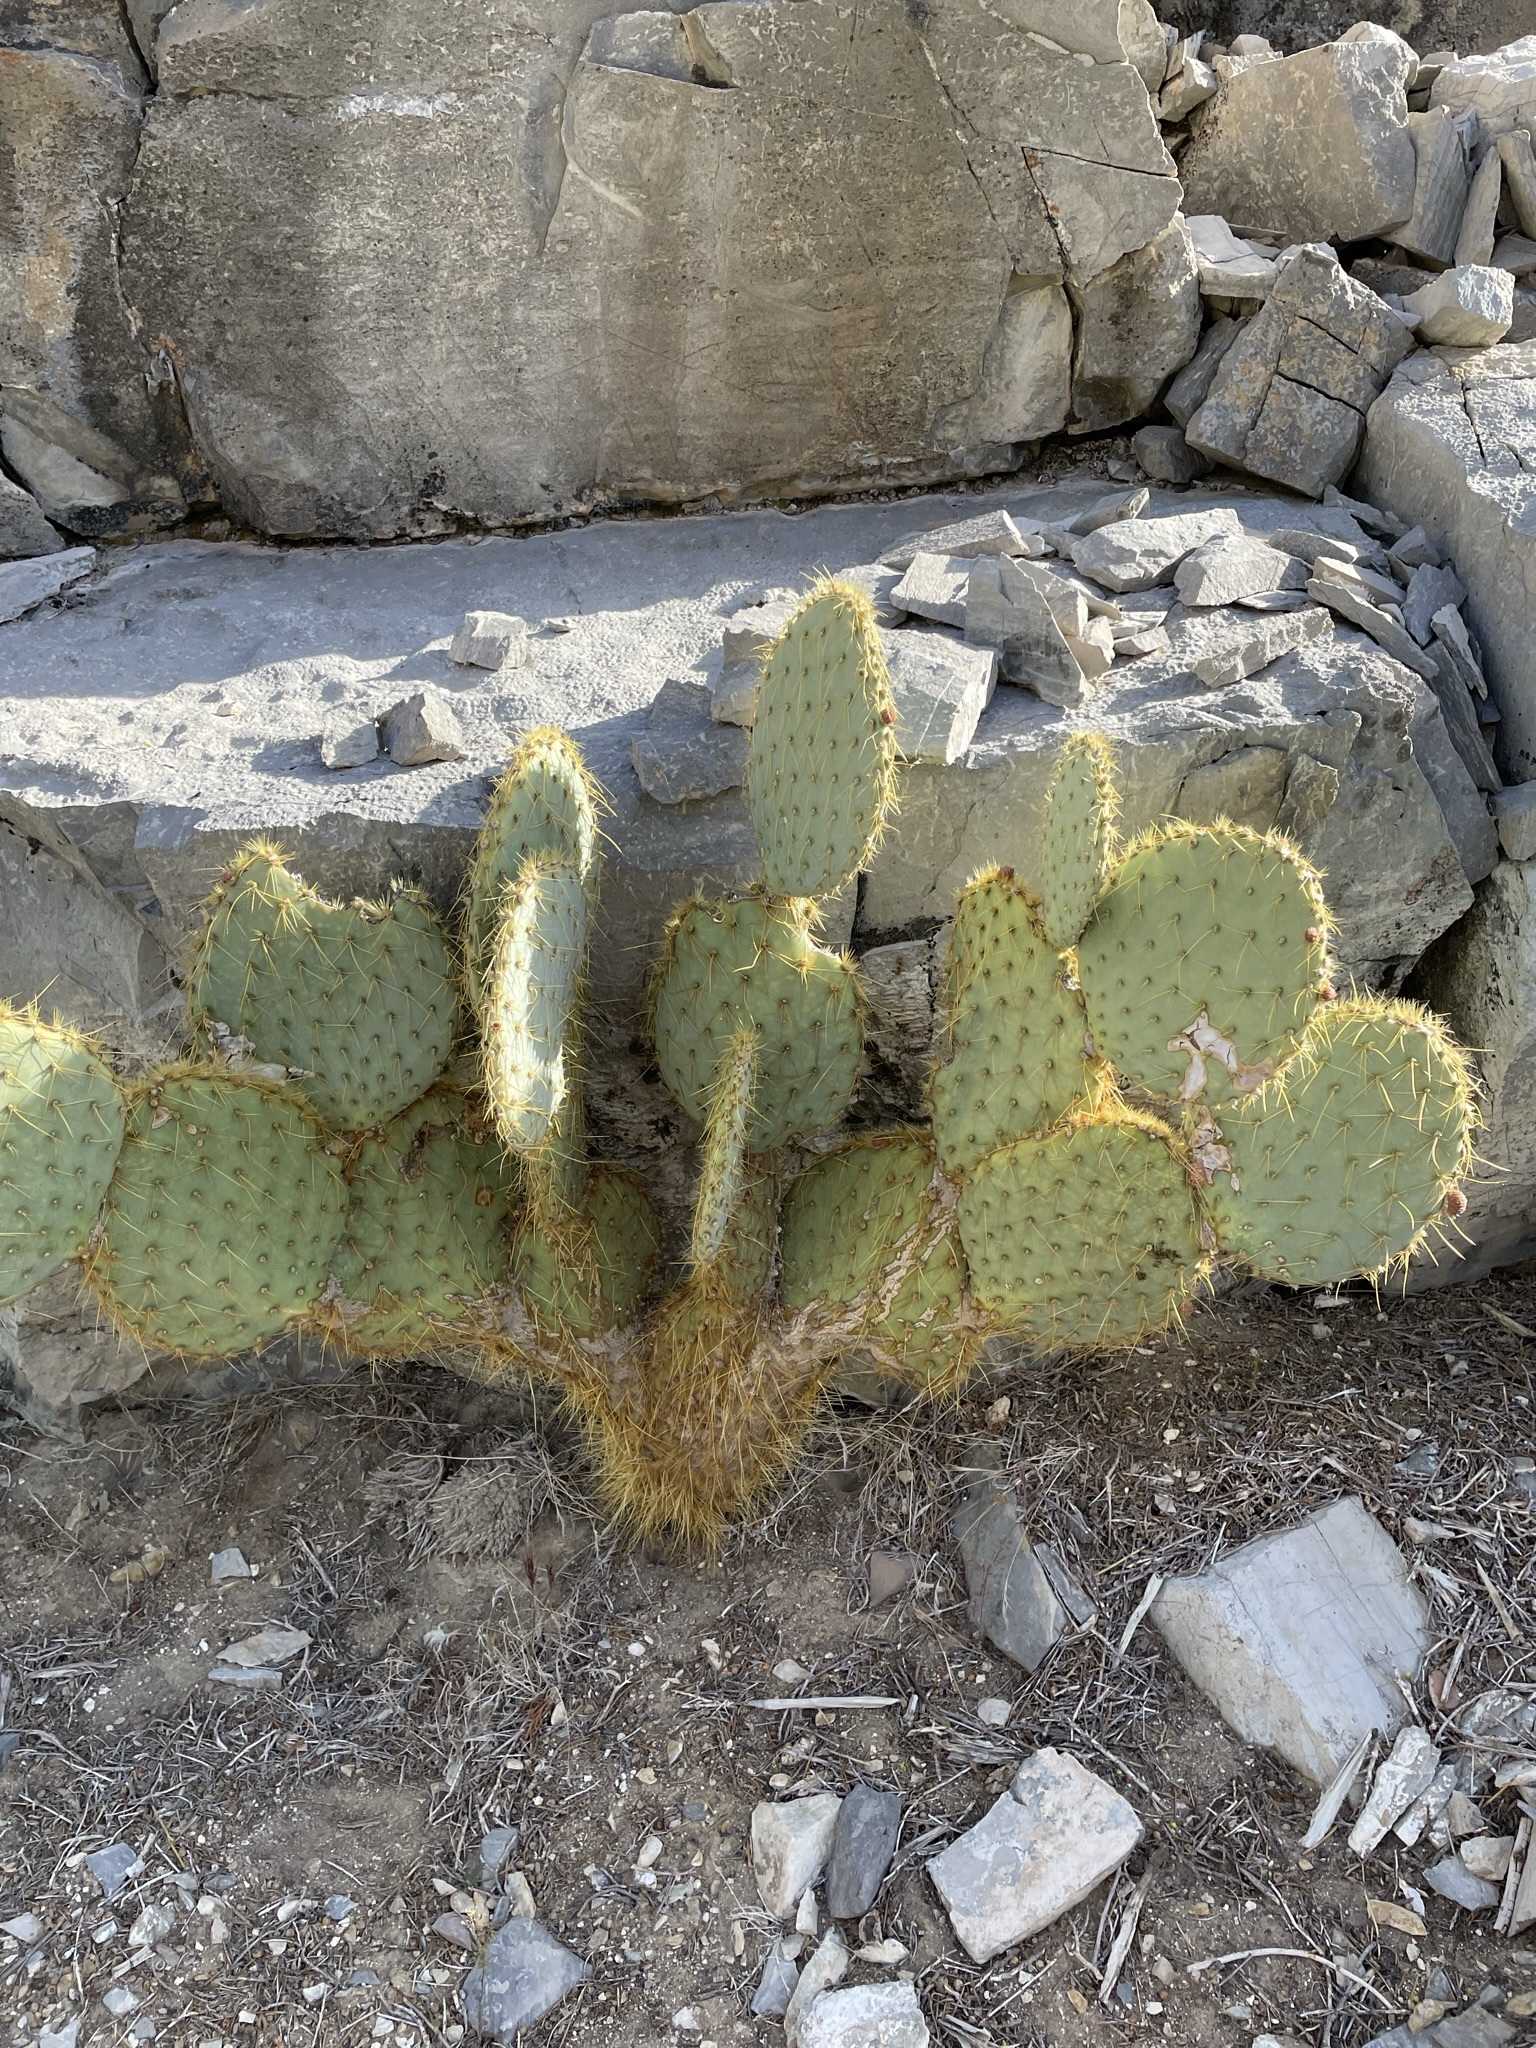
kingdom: Plantae
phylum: Tracheophyta
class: Magnoliopsida
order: Caryophyllales
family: Cactaceae
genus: Opuntia
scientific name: Opuntia chlorotica
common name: Dollar-joint prickly-pear
